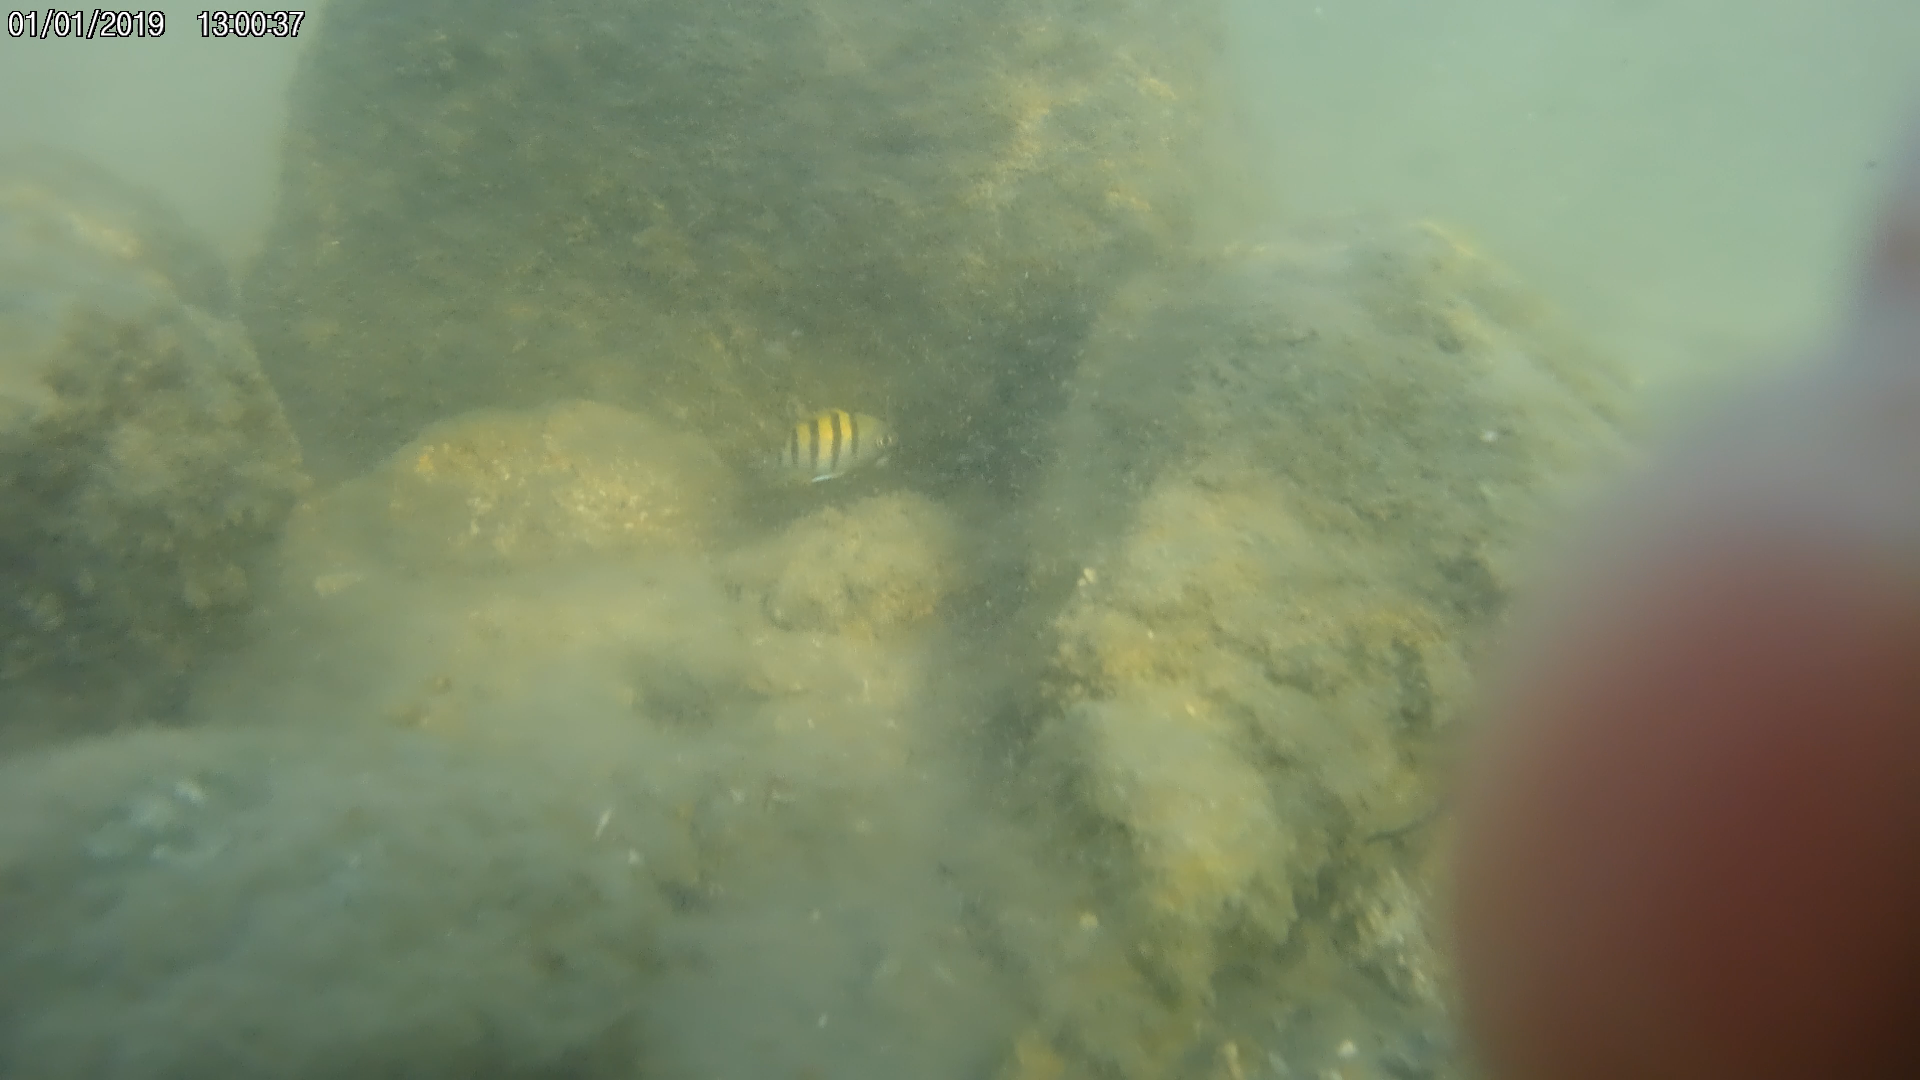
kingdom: Animalia
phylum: Chordata
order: Perciformes
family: Pomacentridae
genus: Abudefduf
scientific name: Abudefduf saxatilis
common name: Sergeant major
